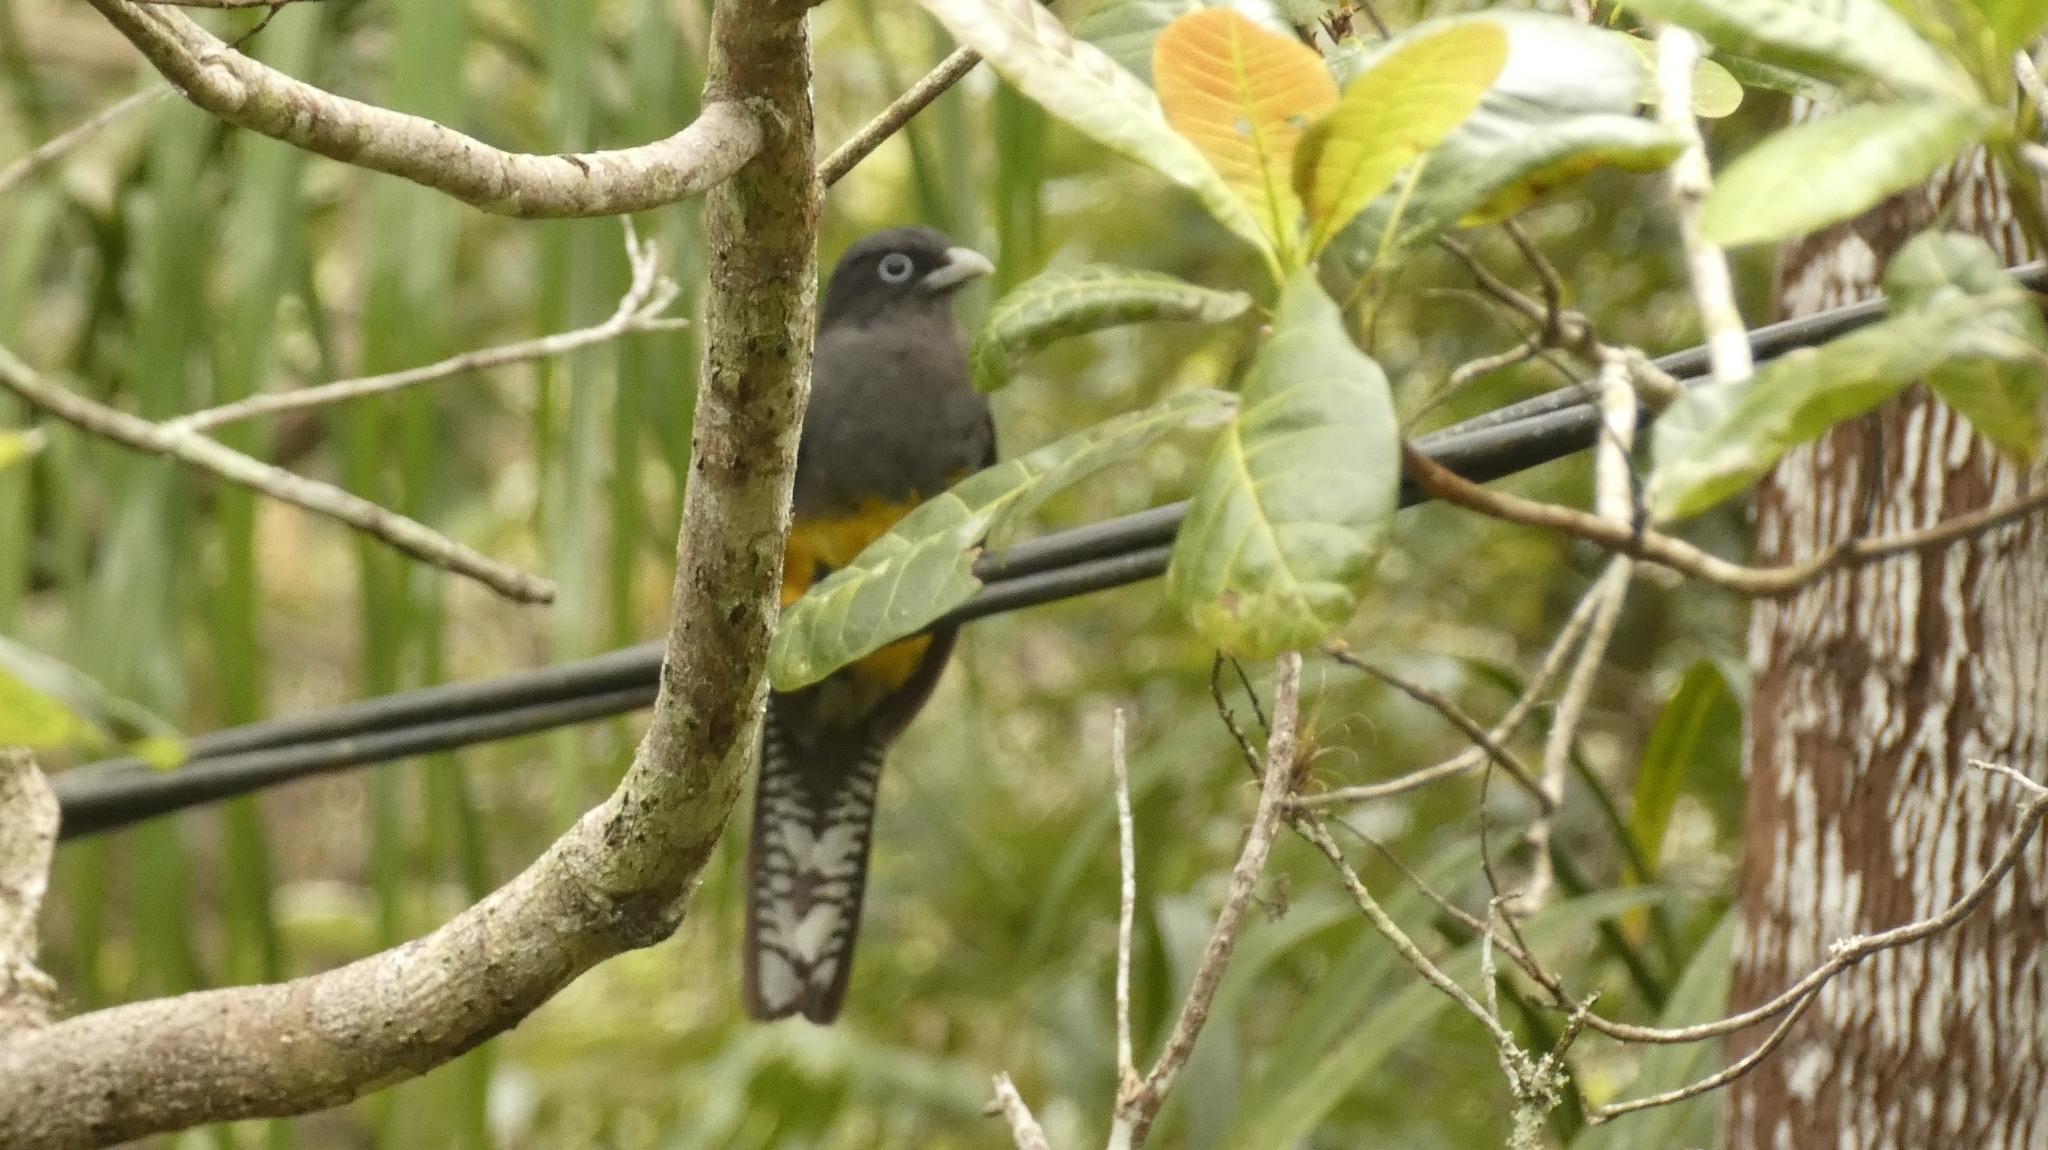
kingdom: Animalia
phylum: Chordata
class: Aves
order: Trogoniformes
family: Trogonidae
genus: Trogon
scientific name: Trogon viridis
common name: Green-backed trogon
